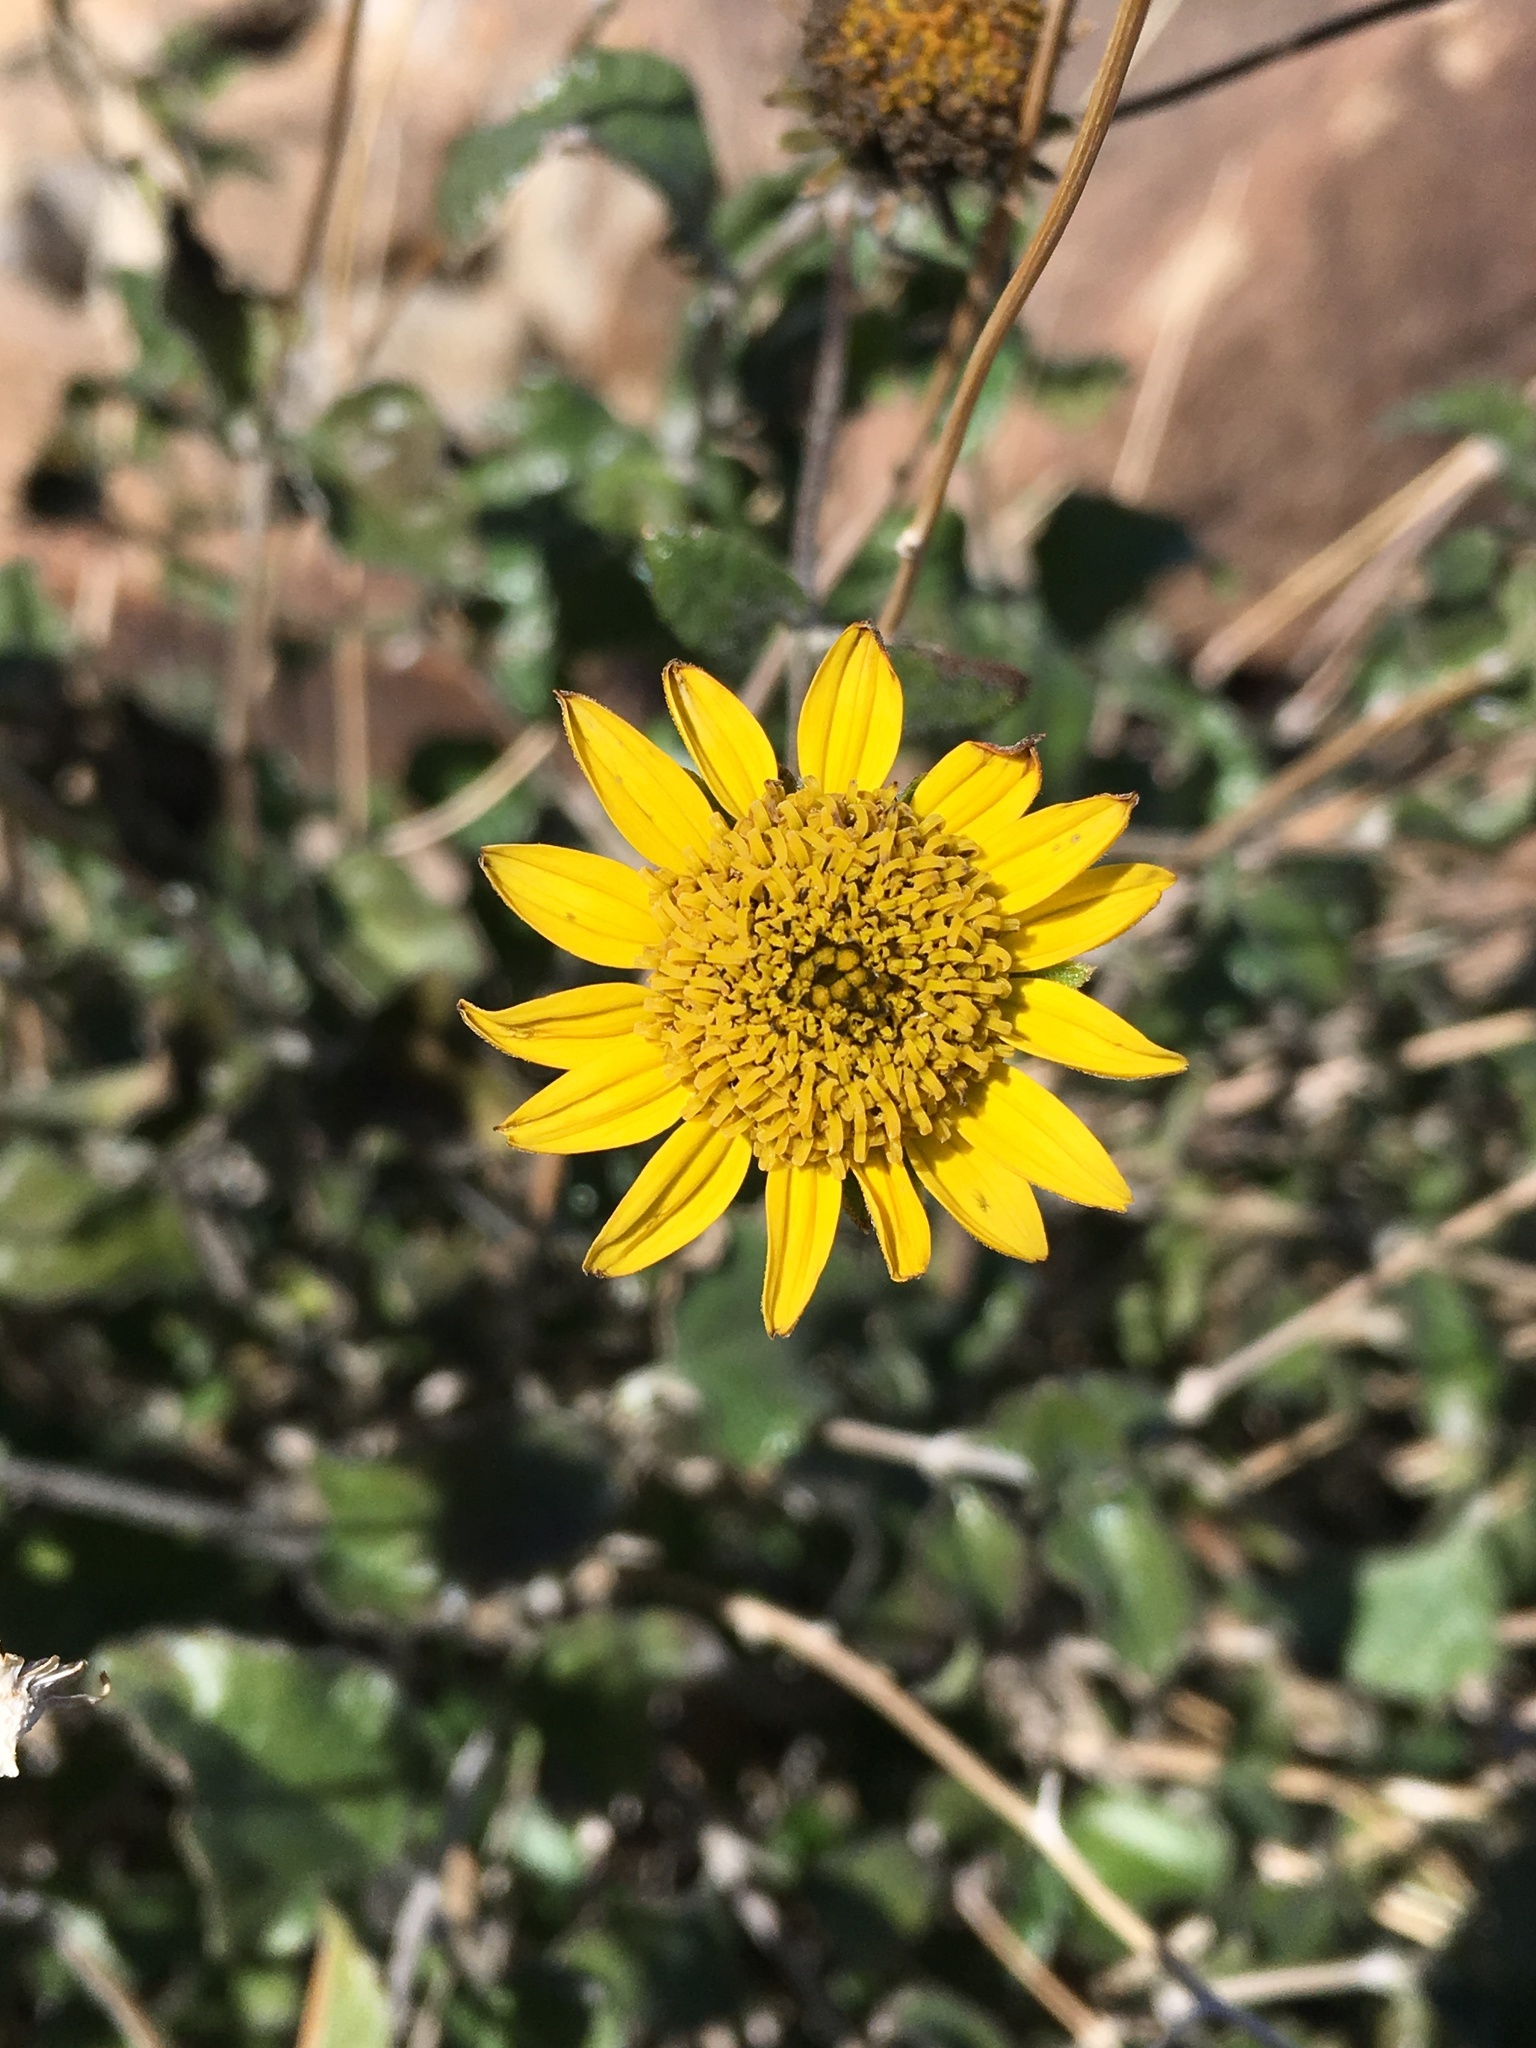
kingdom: Plantae
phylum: Tracheophyta
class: Magnoliopsida
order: Asterales
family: Asteraceae
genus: Bahiopsis
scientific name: Bahiopsis parishii
